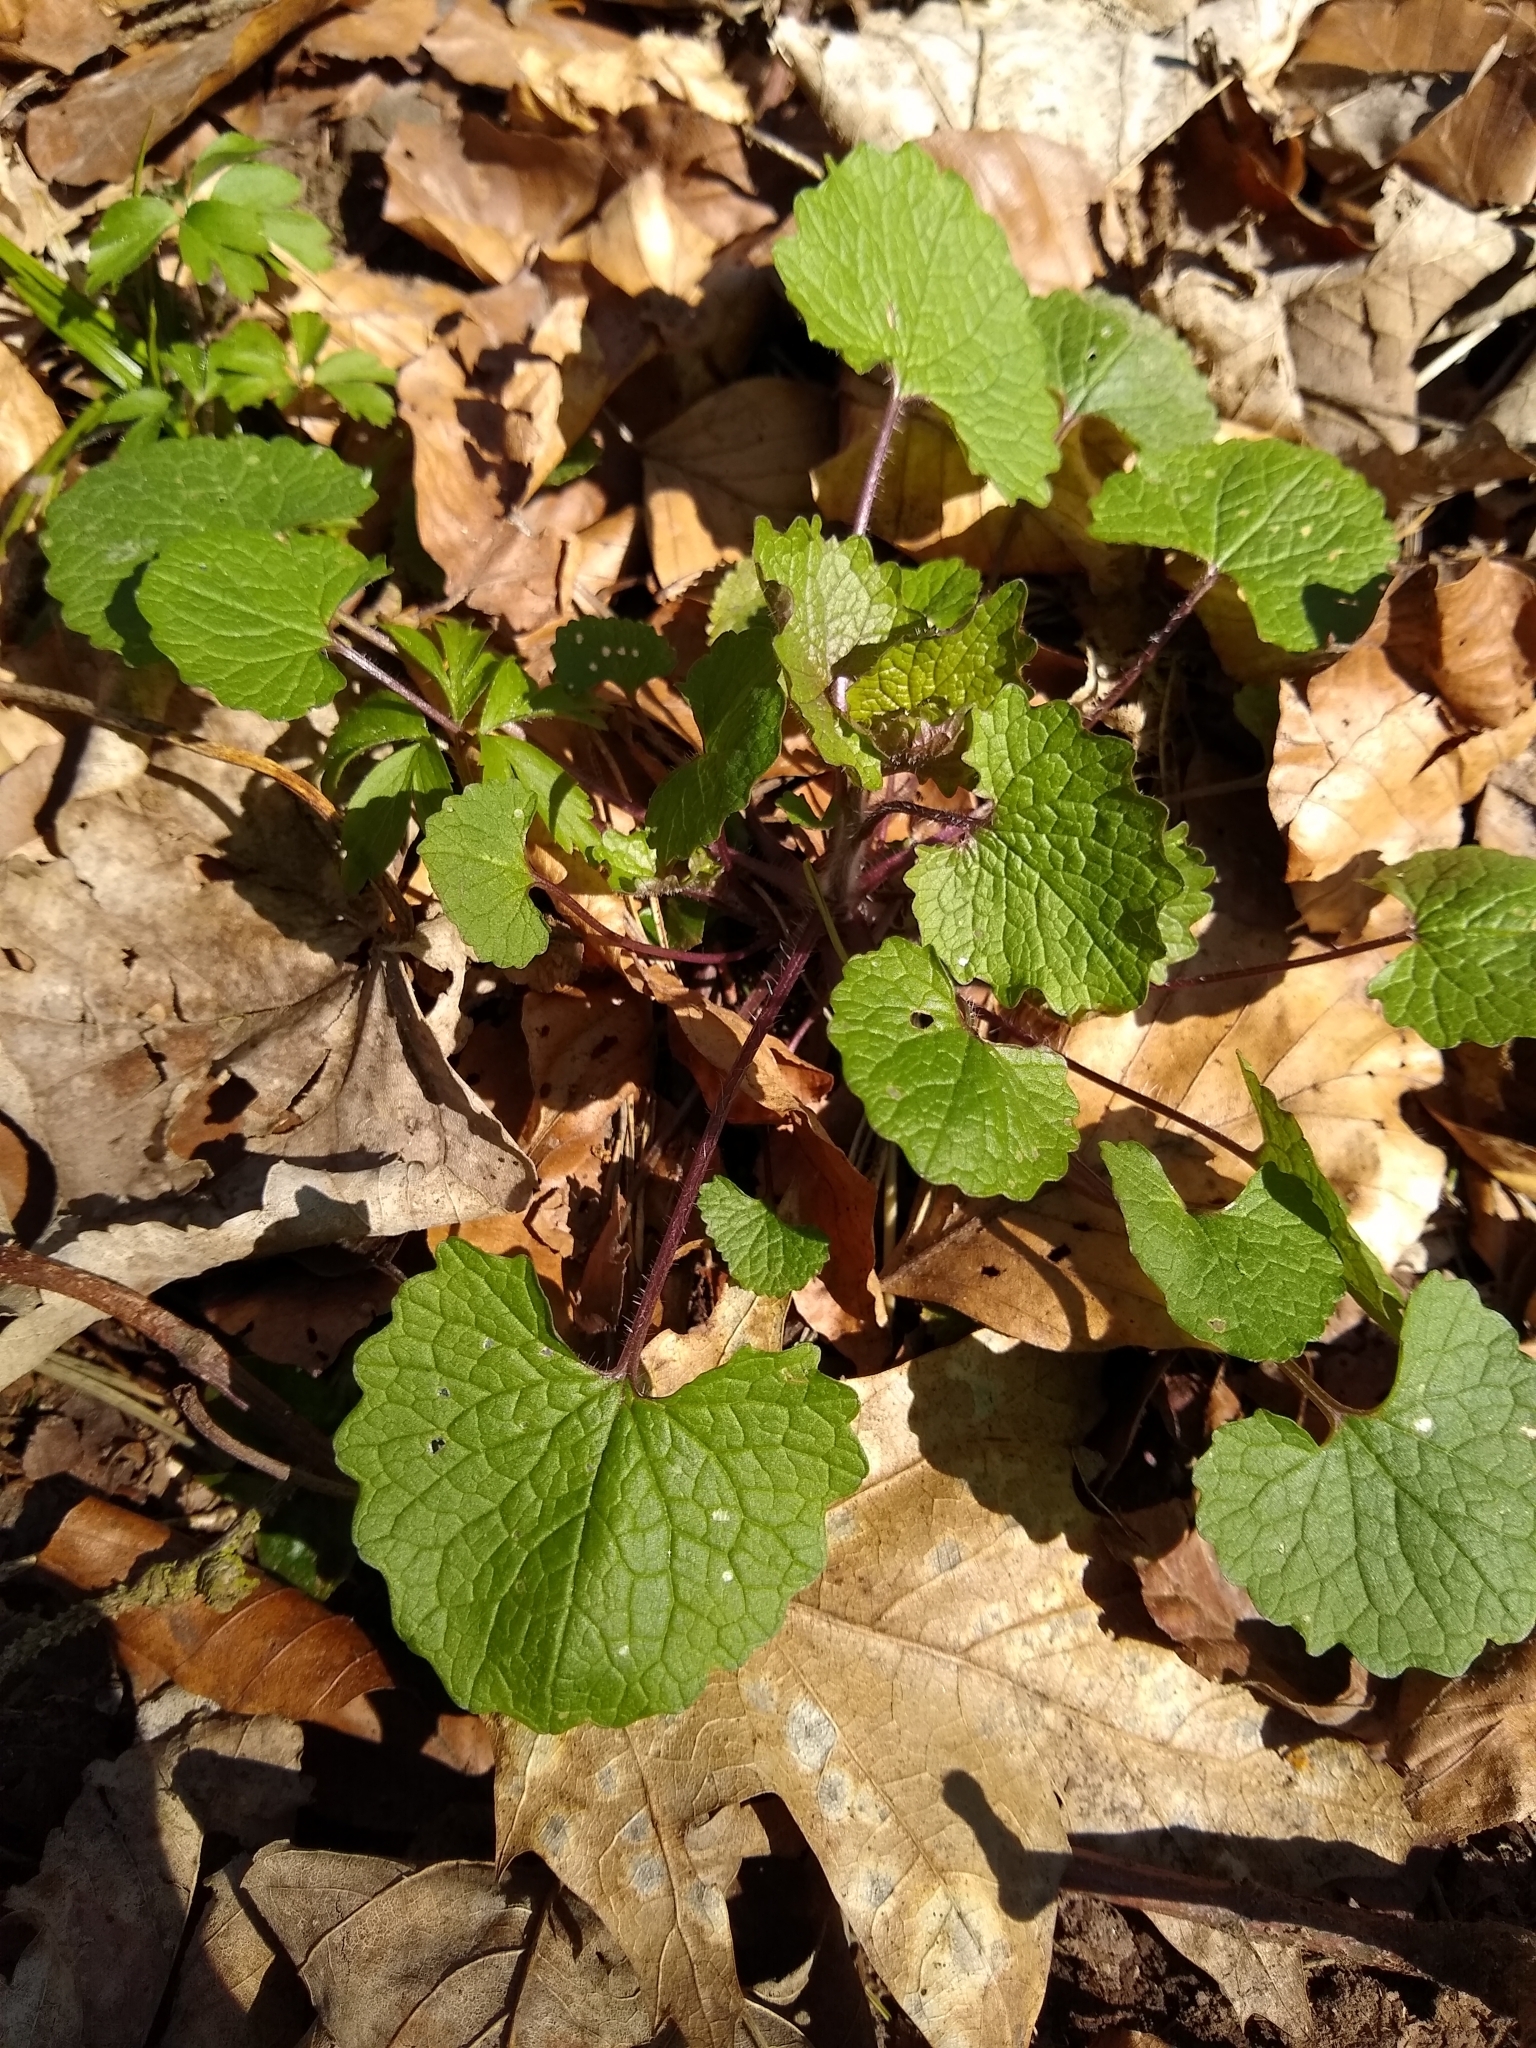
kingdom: Plantae
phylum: Tracheophyta
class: Magnoliopsida
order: Brassicales
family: Brassicaceae
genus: Alliaria
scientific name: Alliaria petiolata
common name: Garlic mustard
